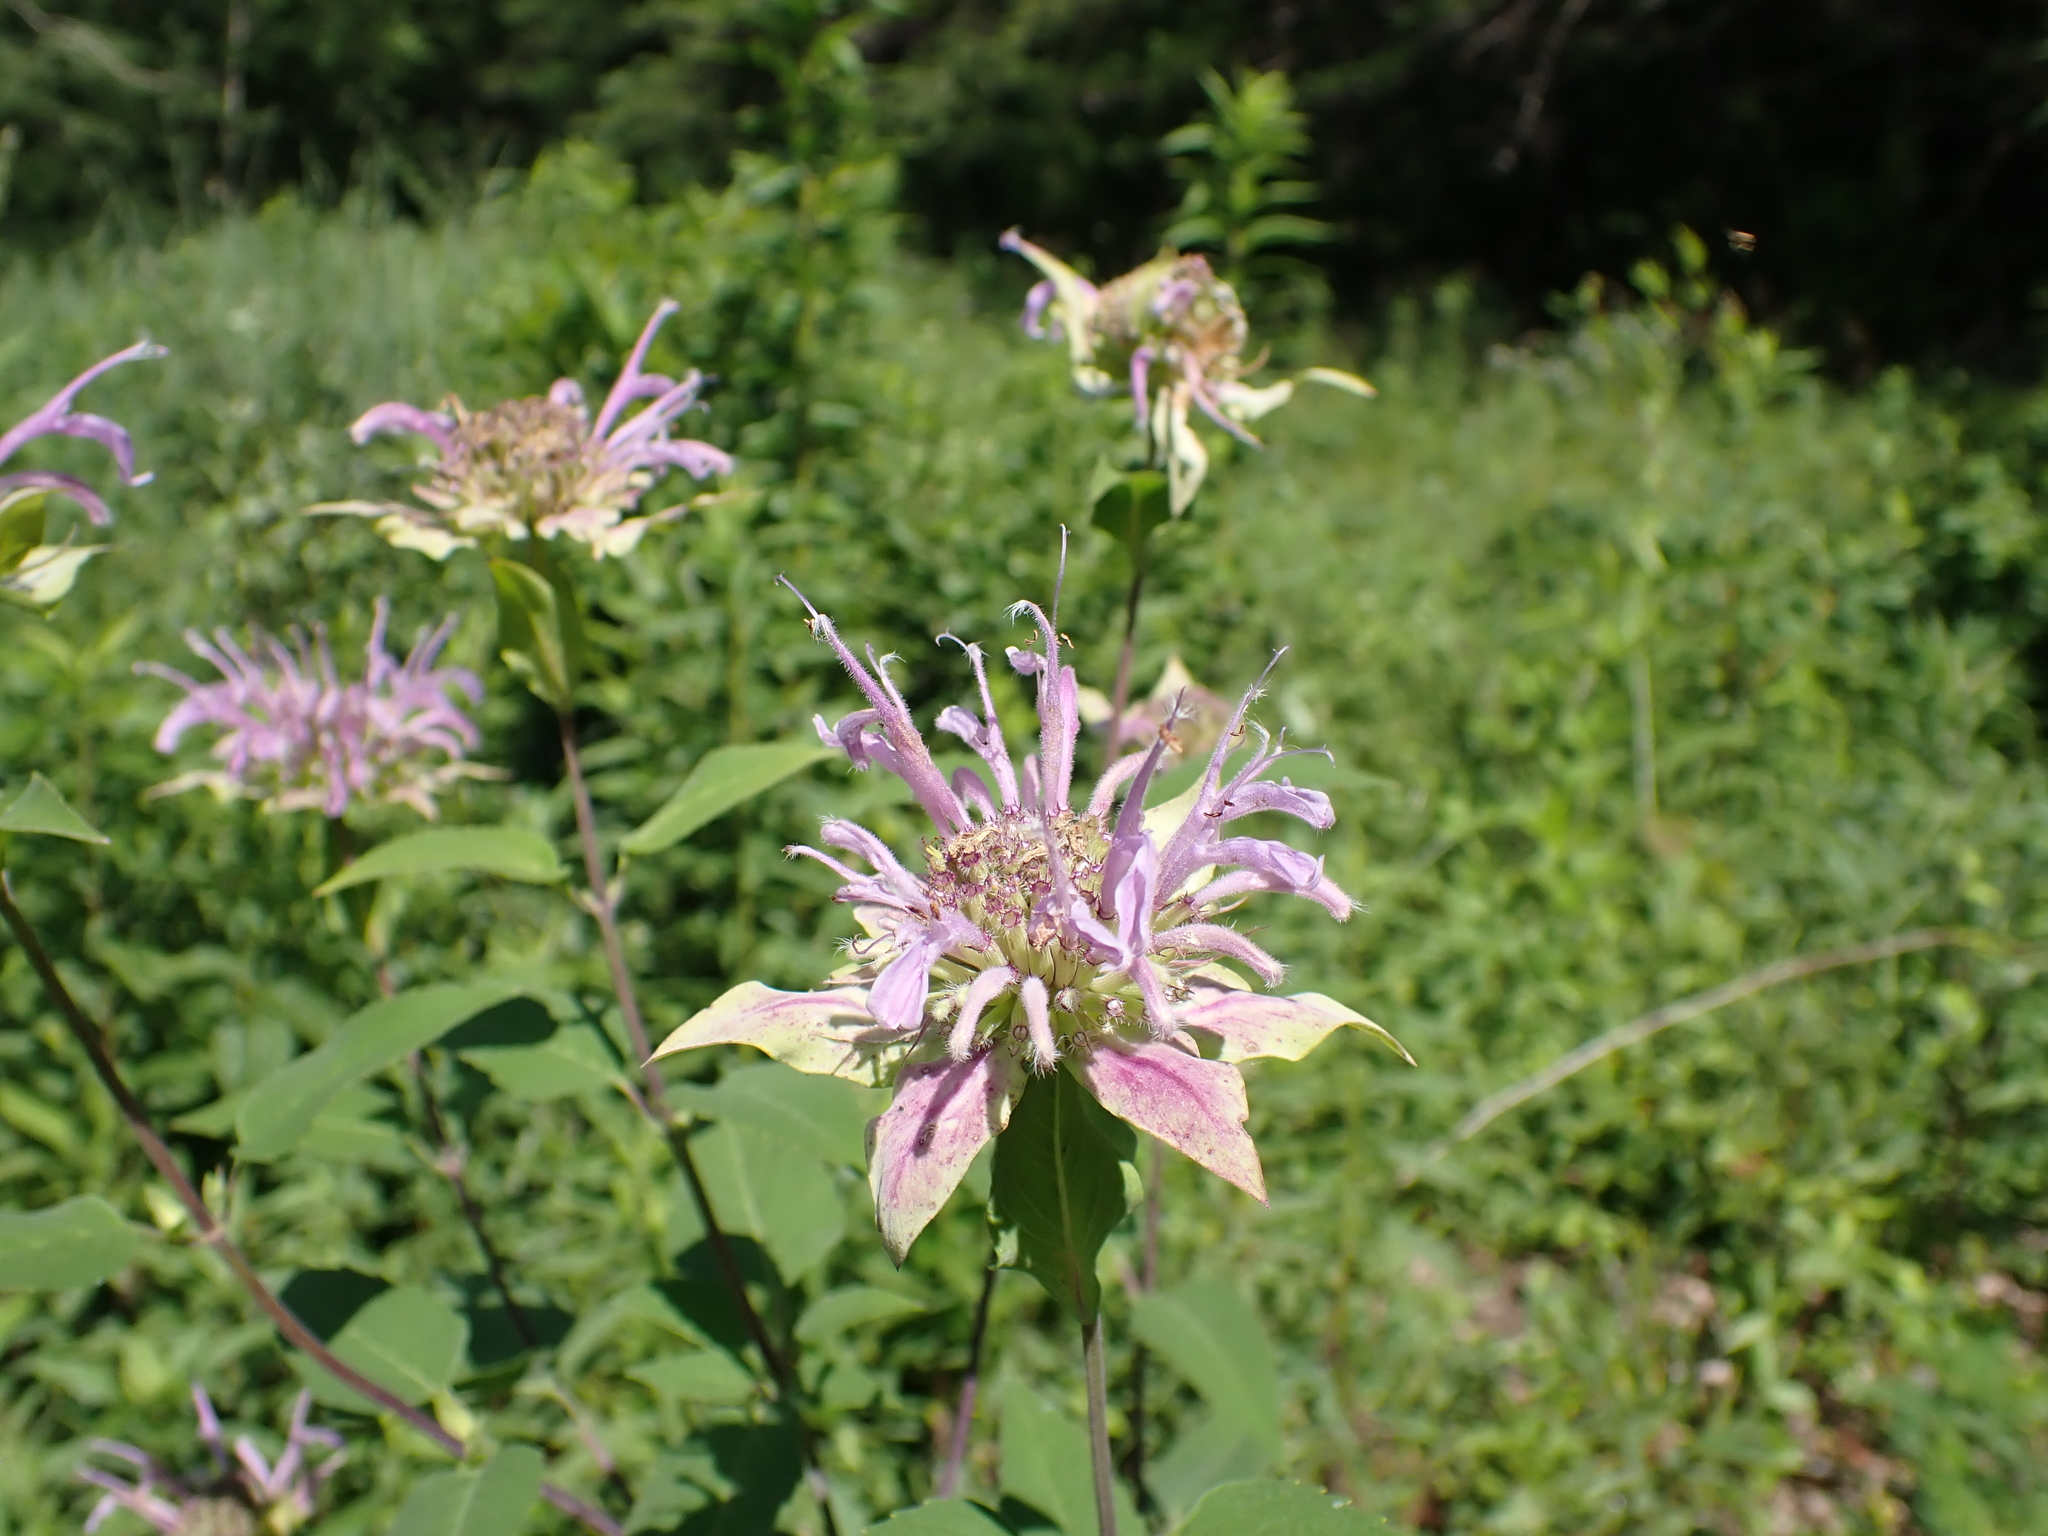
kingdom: Plantae
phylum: Tracheophyta
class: Magnoliopsida
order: Lamiales
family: Lamiaceae
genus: Monarda
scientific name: Monarda fistulosa
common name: Purple beebalm
